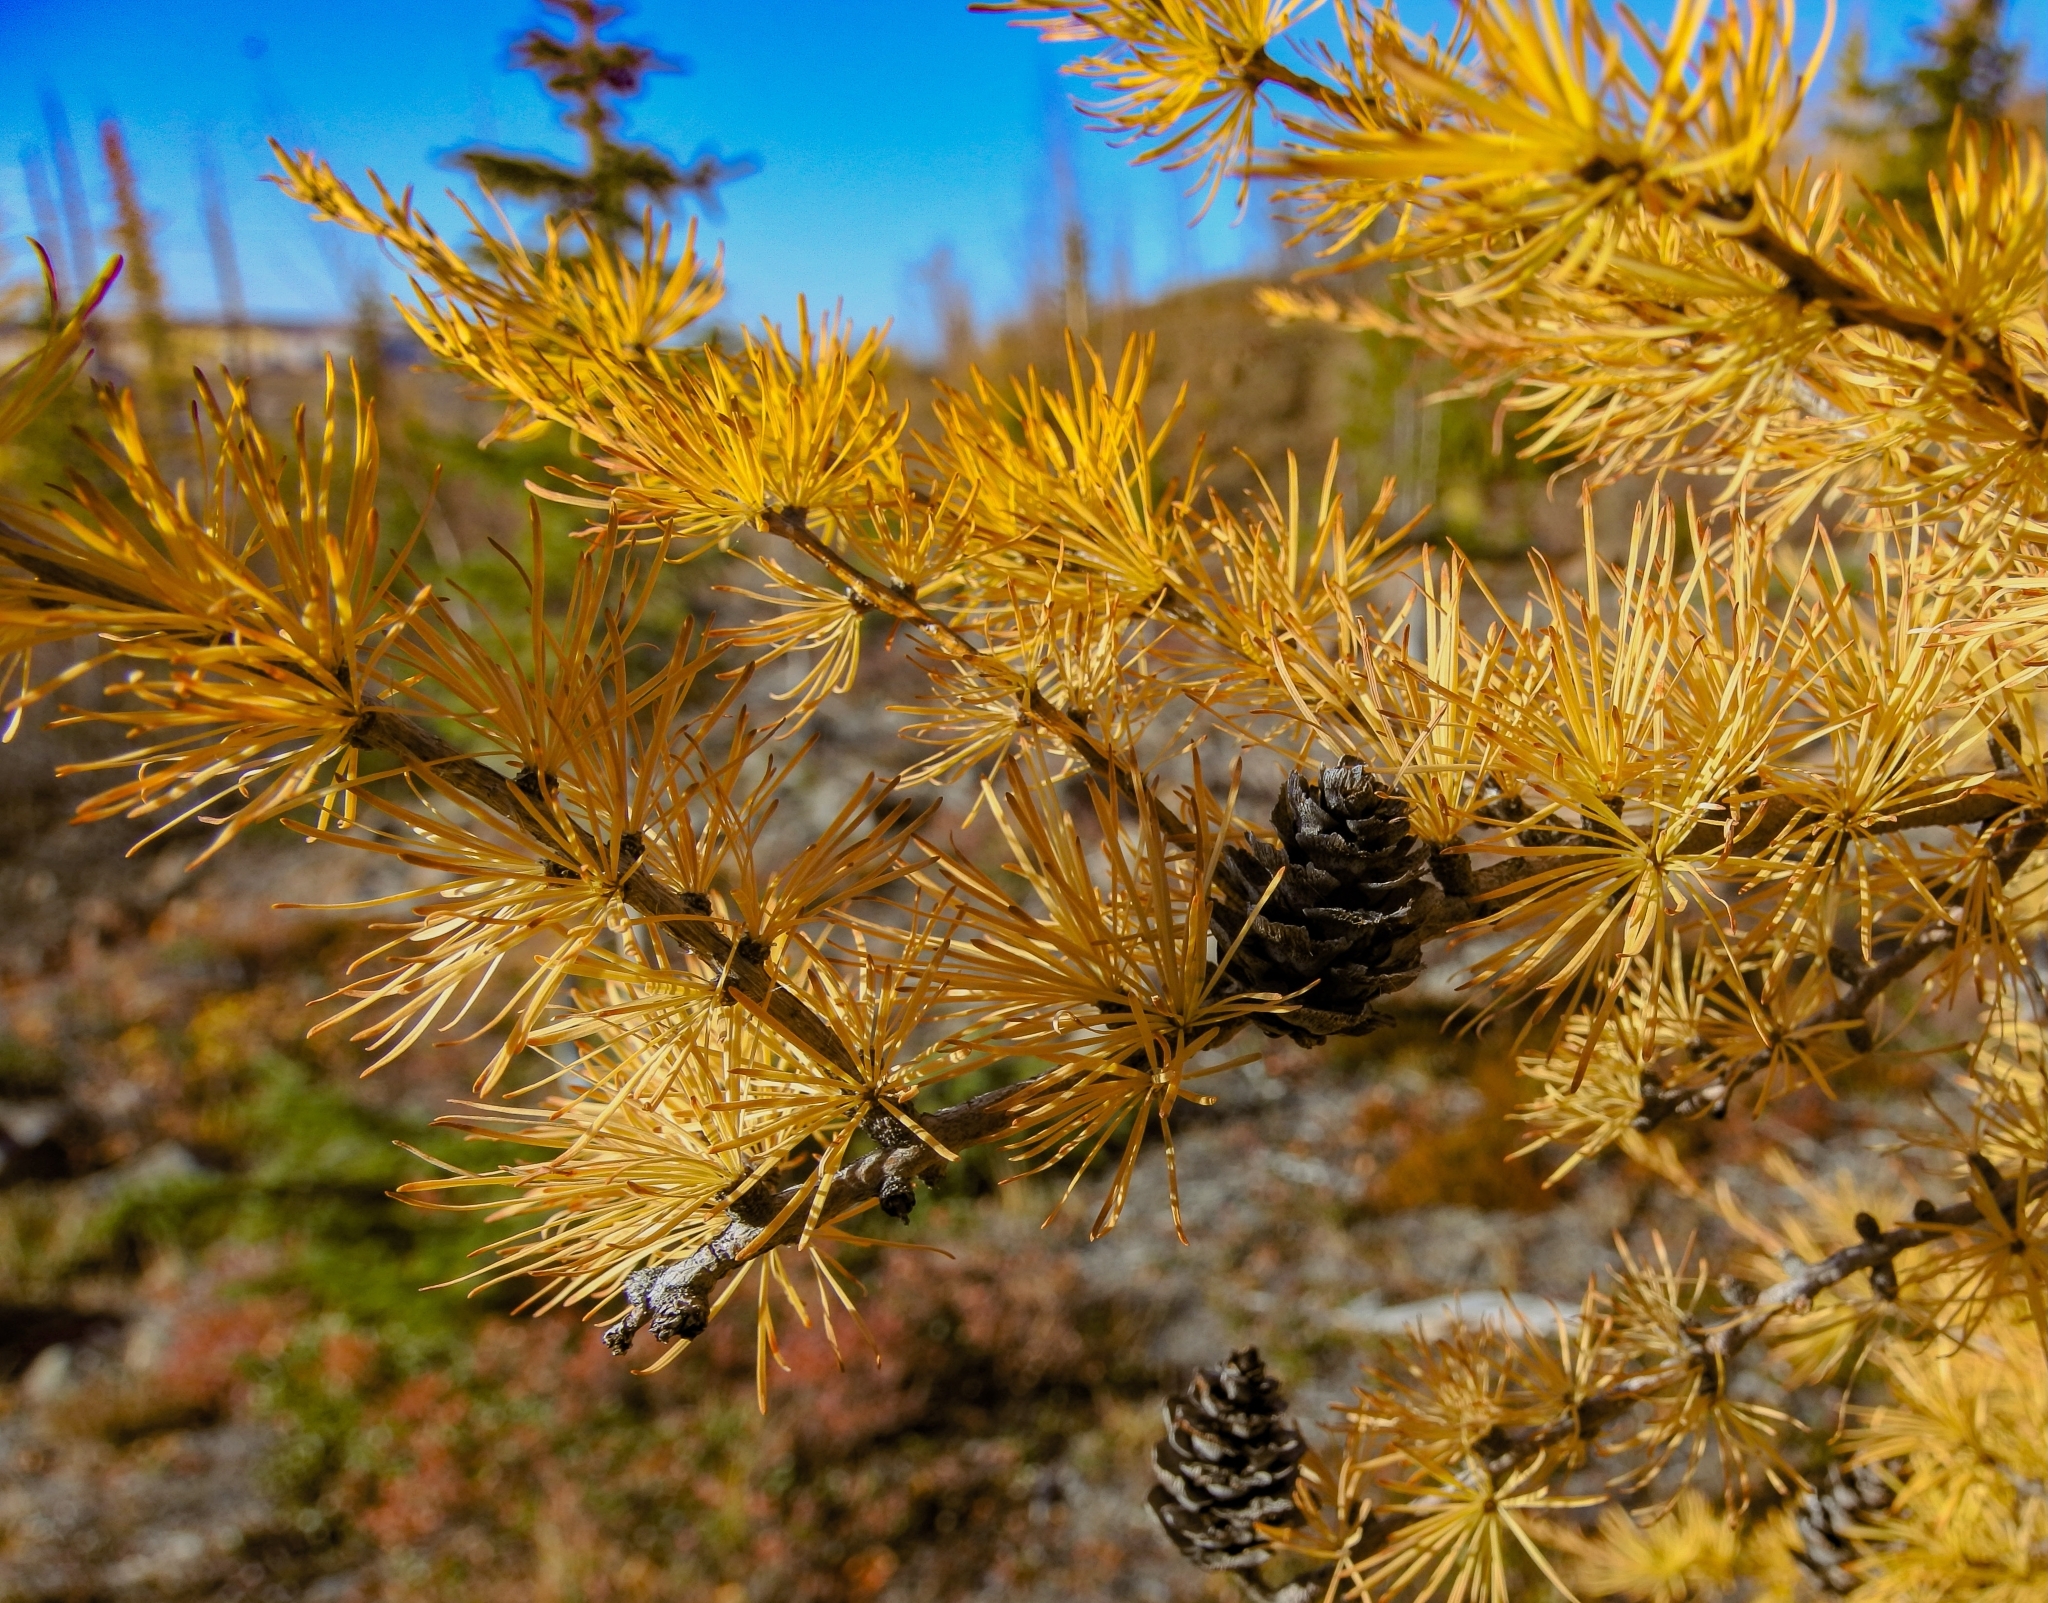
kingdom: Plantae
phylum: Tracheophyta
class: Pinopsida
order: Pinales
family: Pinaceae
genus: Larix
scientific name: Larix sibirica
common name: Siberian larch
